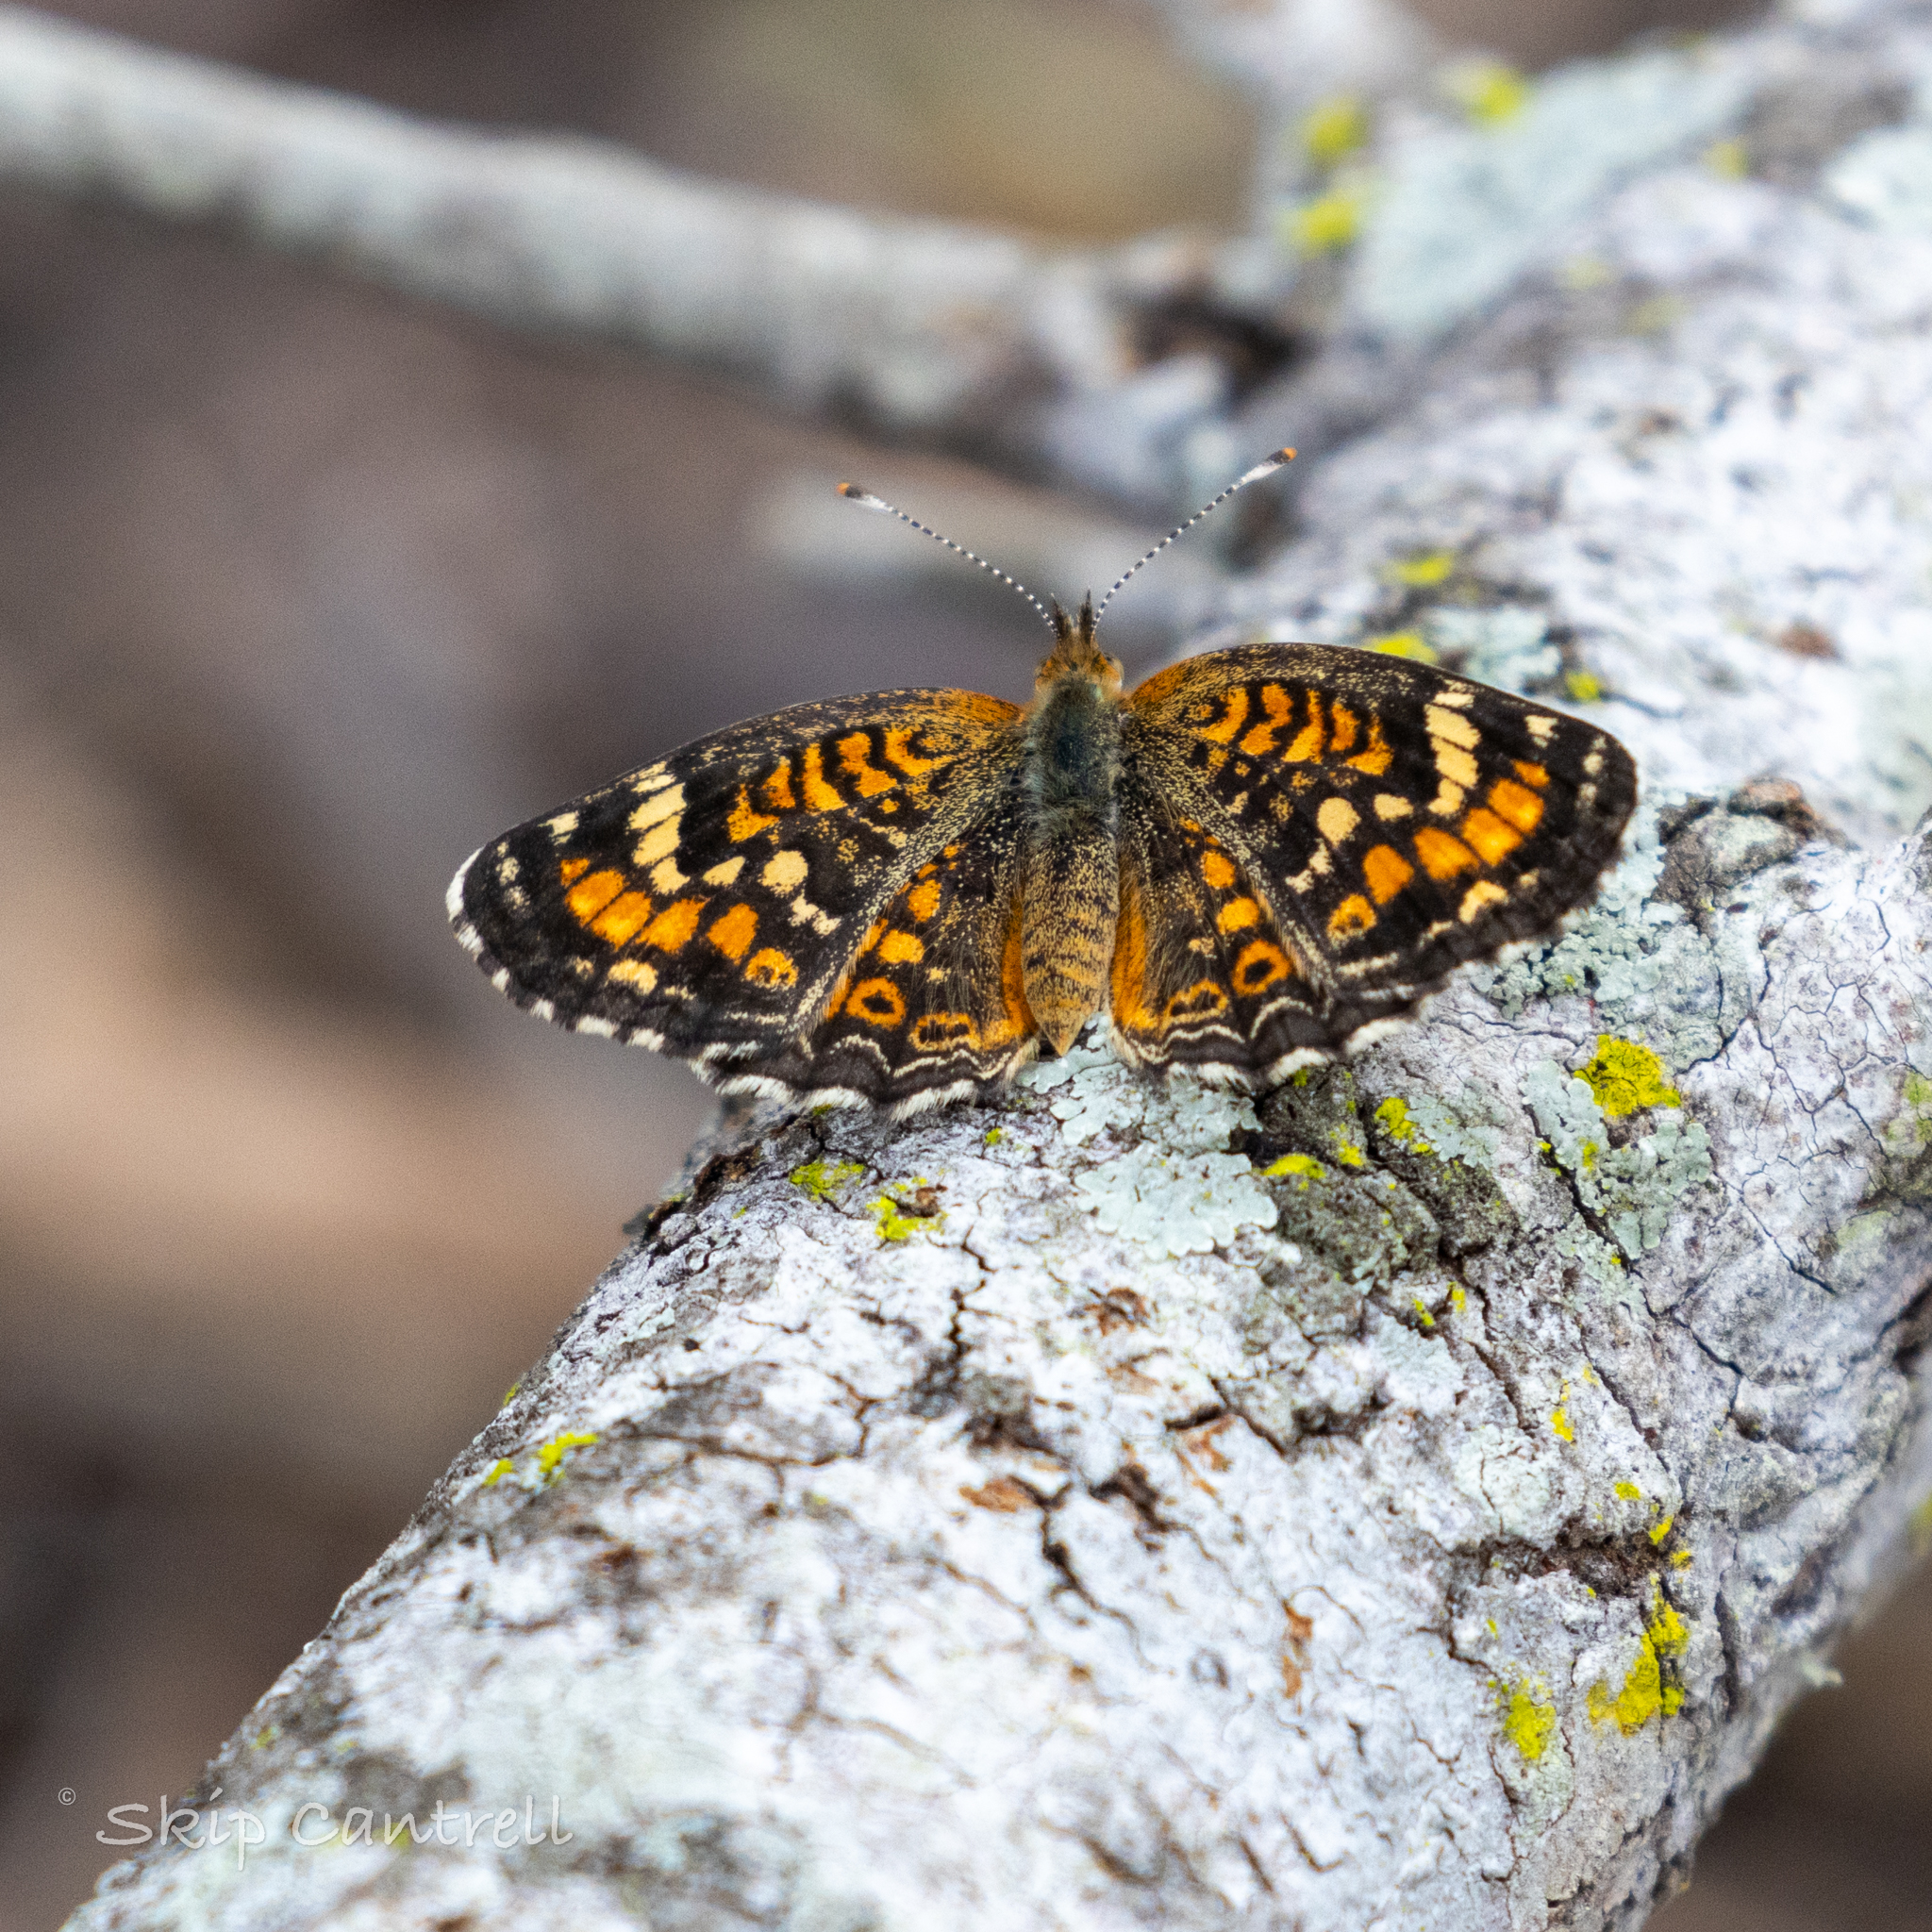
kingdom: Animalia
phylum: Arthropoda
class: Insecta
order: Lepidoptera
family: Nymphalidae
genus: Phyciodes
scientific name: Phyciodes phaon
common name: Phaon crescent
